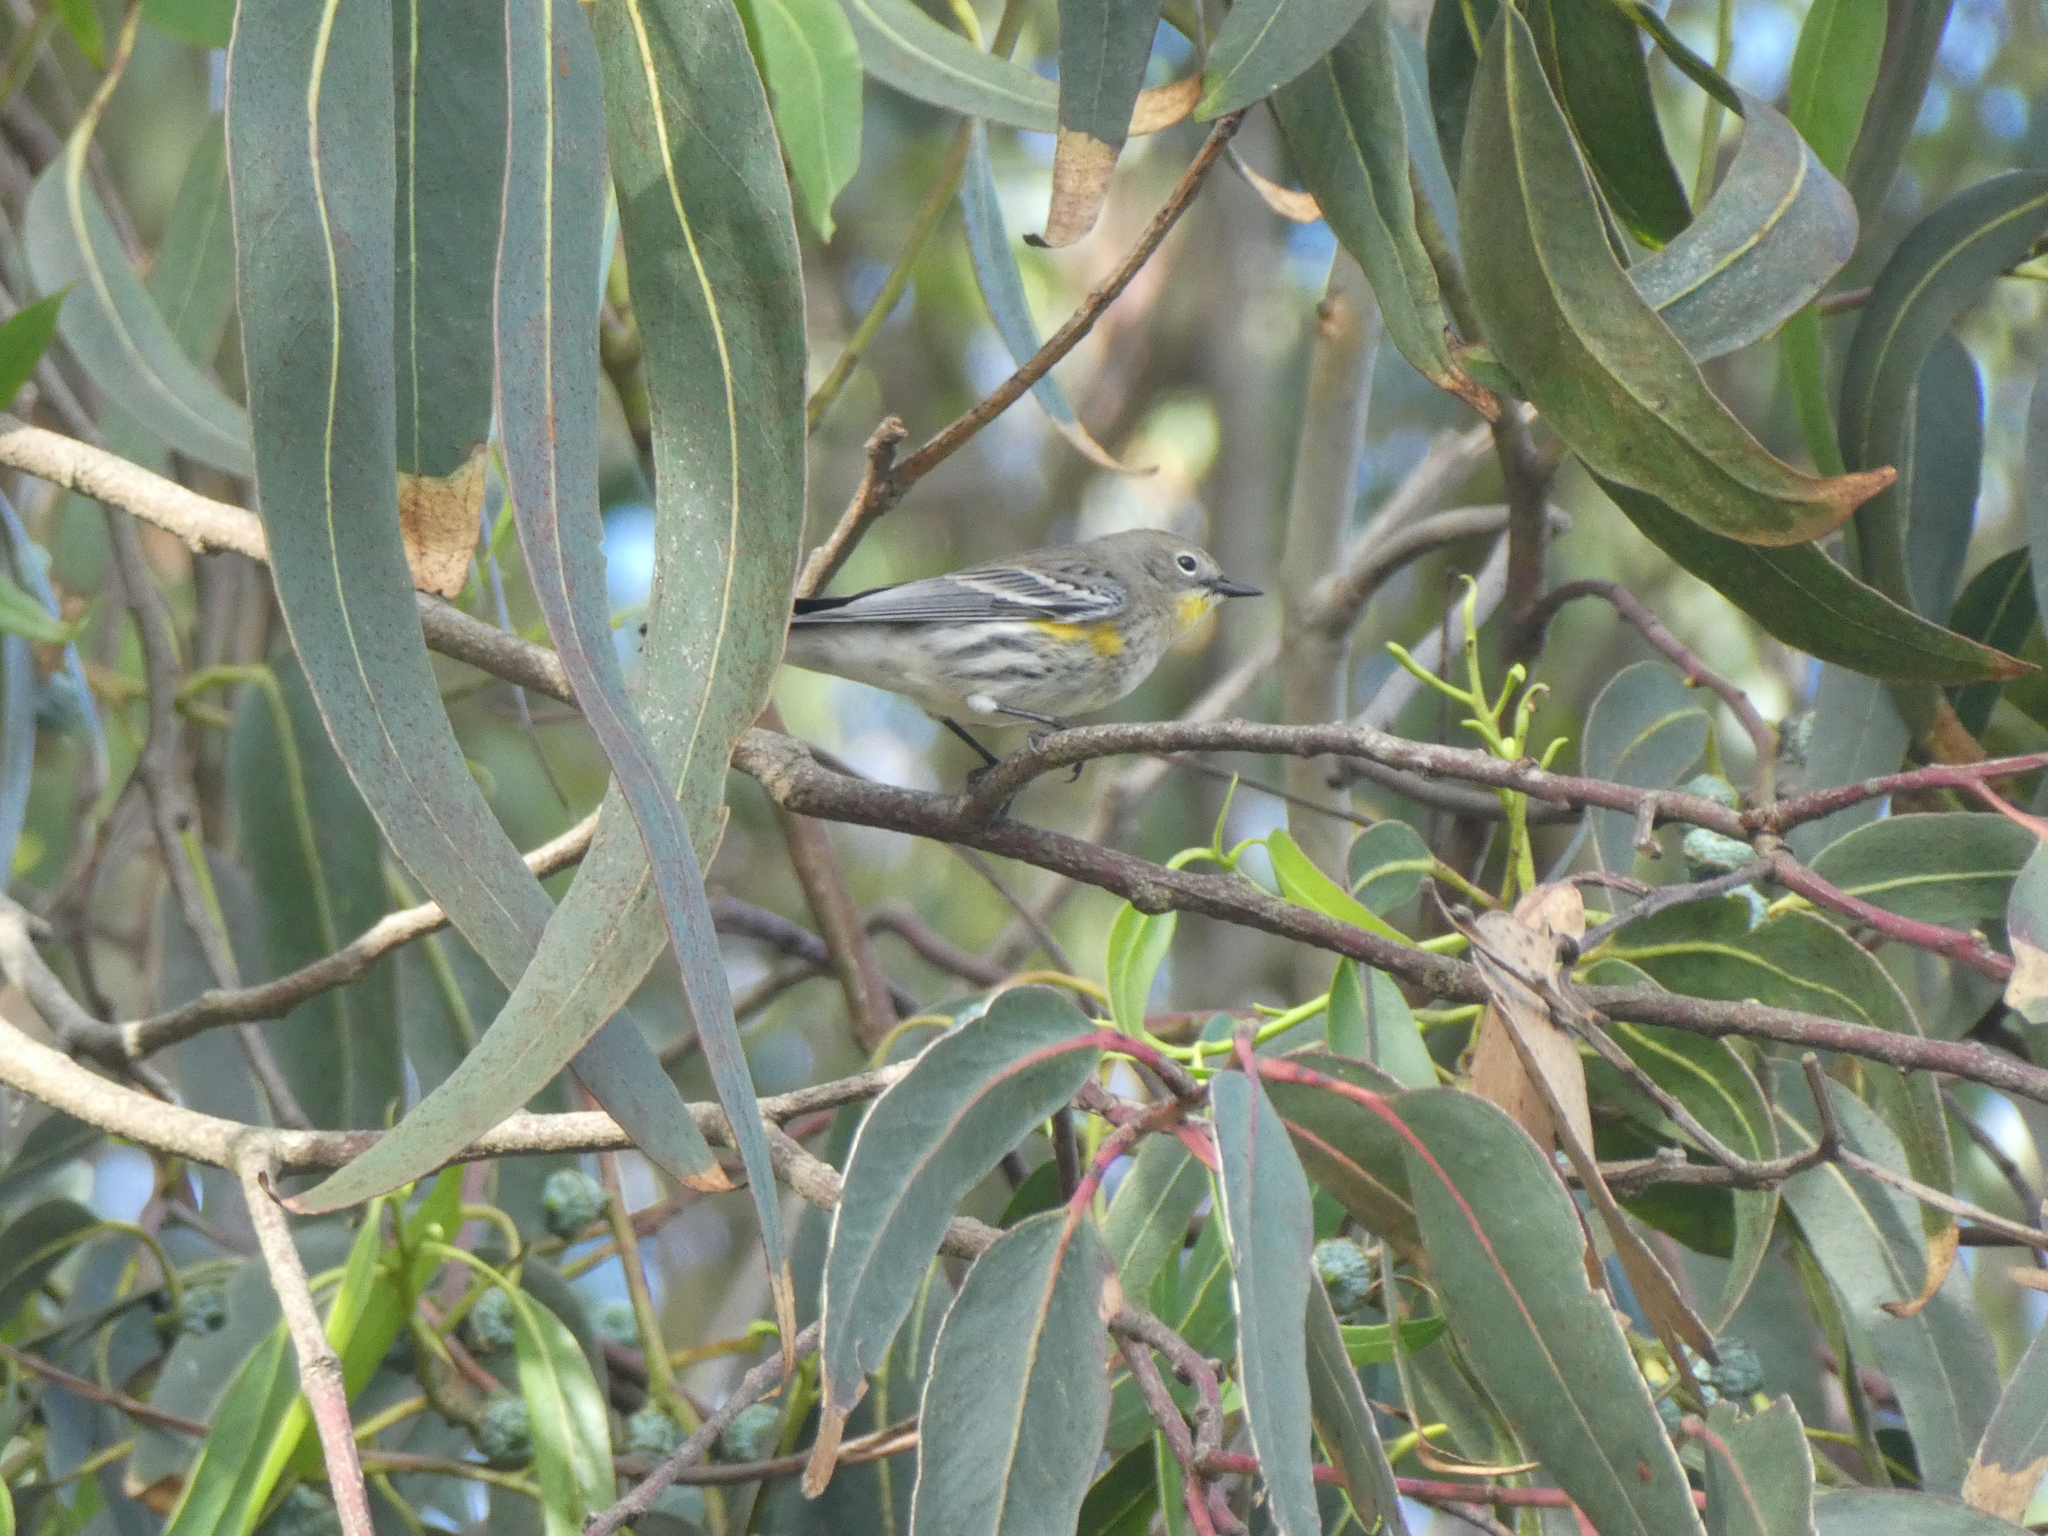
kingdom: Animalia
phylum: Chordata
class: Aves
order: Passeriformes
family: Parulidae
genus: Setophaga
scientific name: Setophaga coronata
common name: Myrtle warbler
